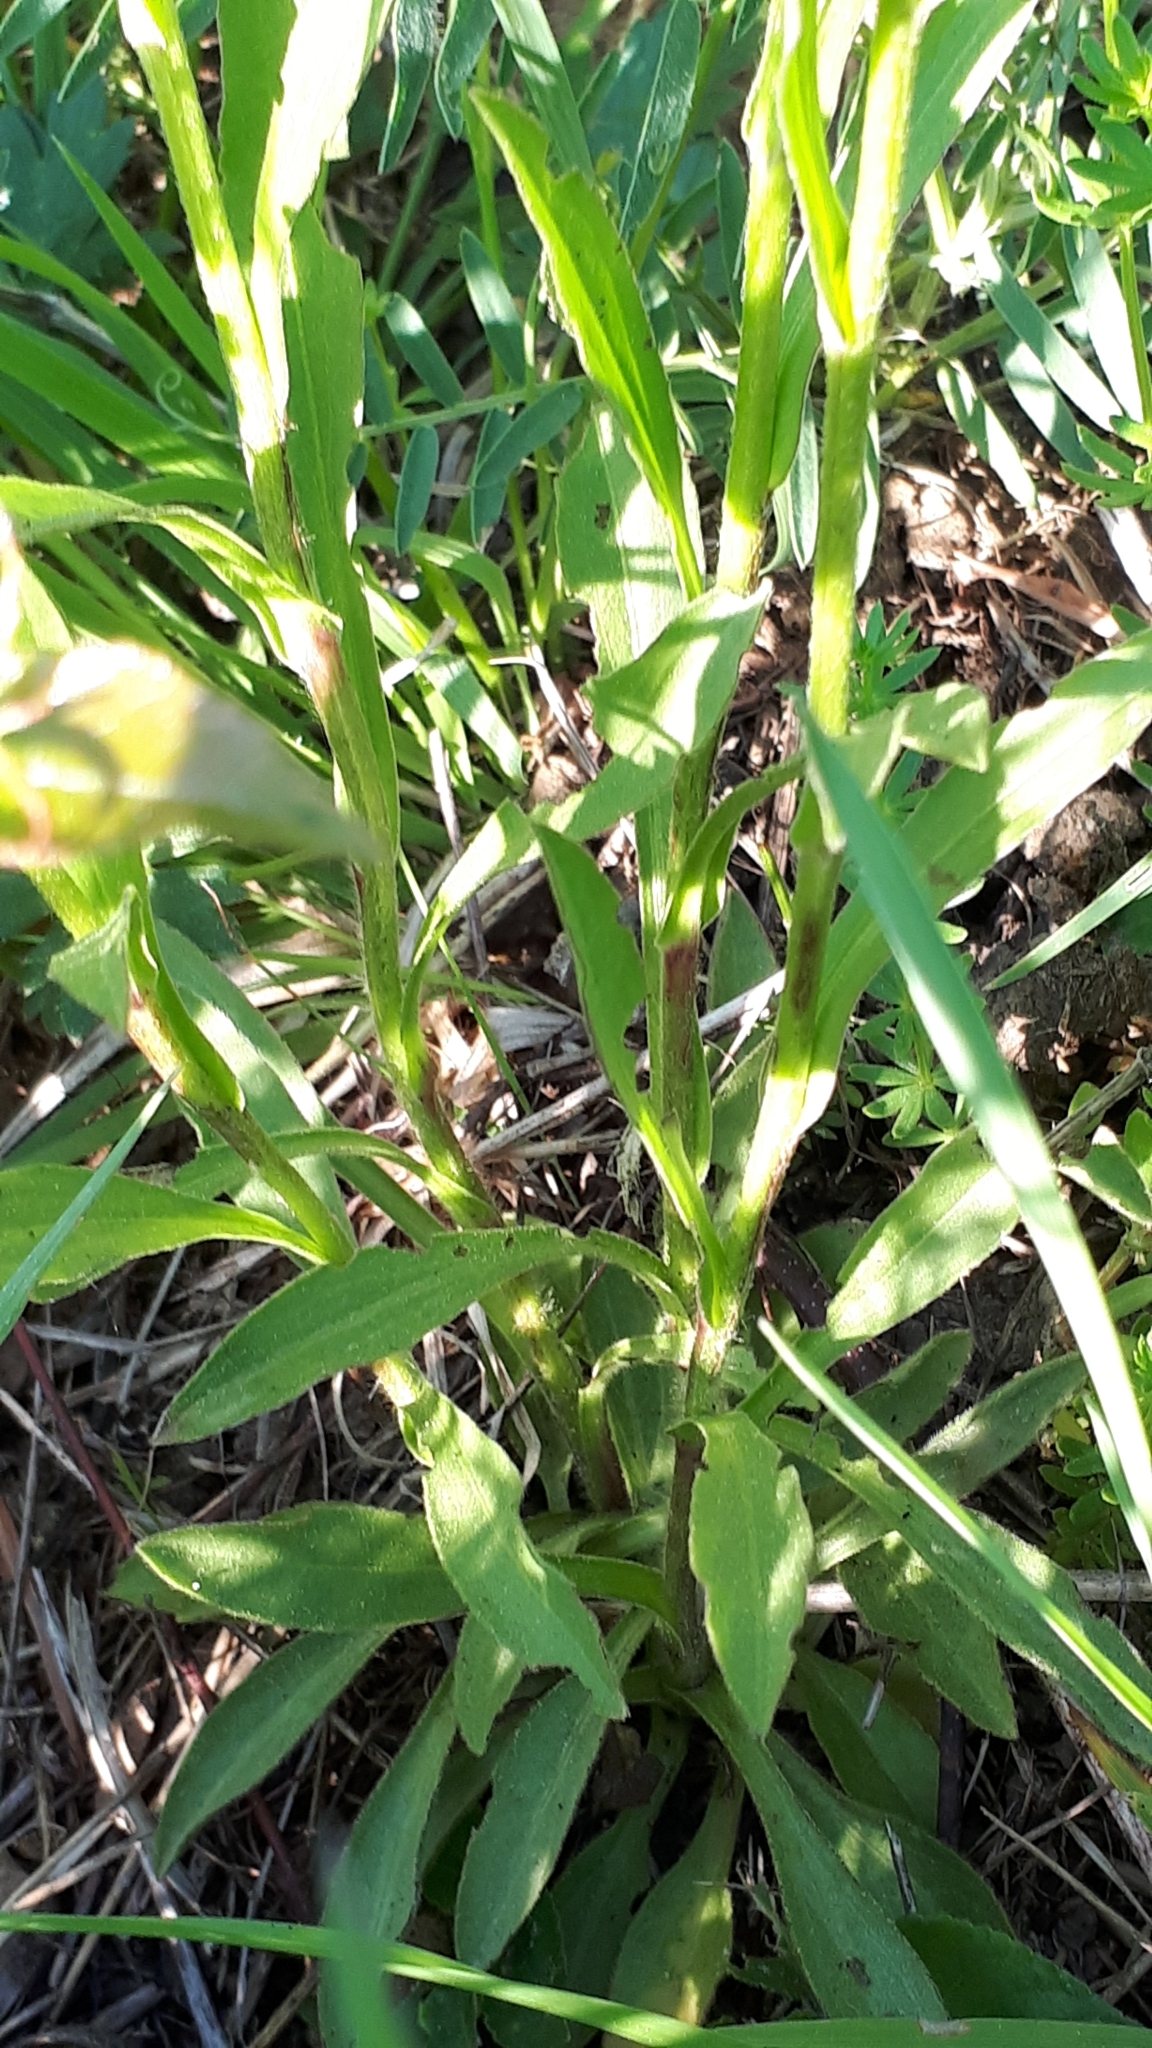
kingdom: Plantae
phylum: Tracheophyta
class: Magnoliopsida
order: Asterales
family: Asteraceae
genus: Buphthalmum
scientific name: Buphthalmum salicifolium
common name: Willow-leaved yellow-oxeye
